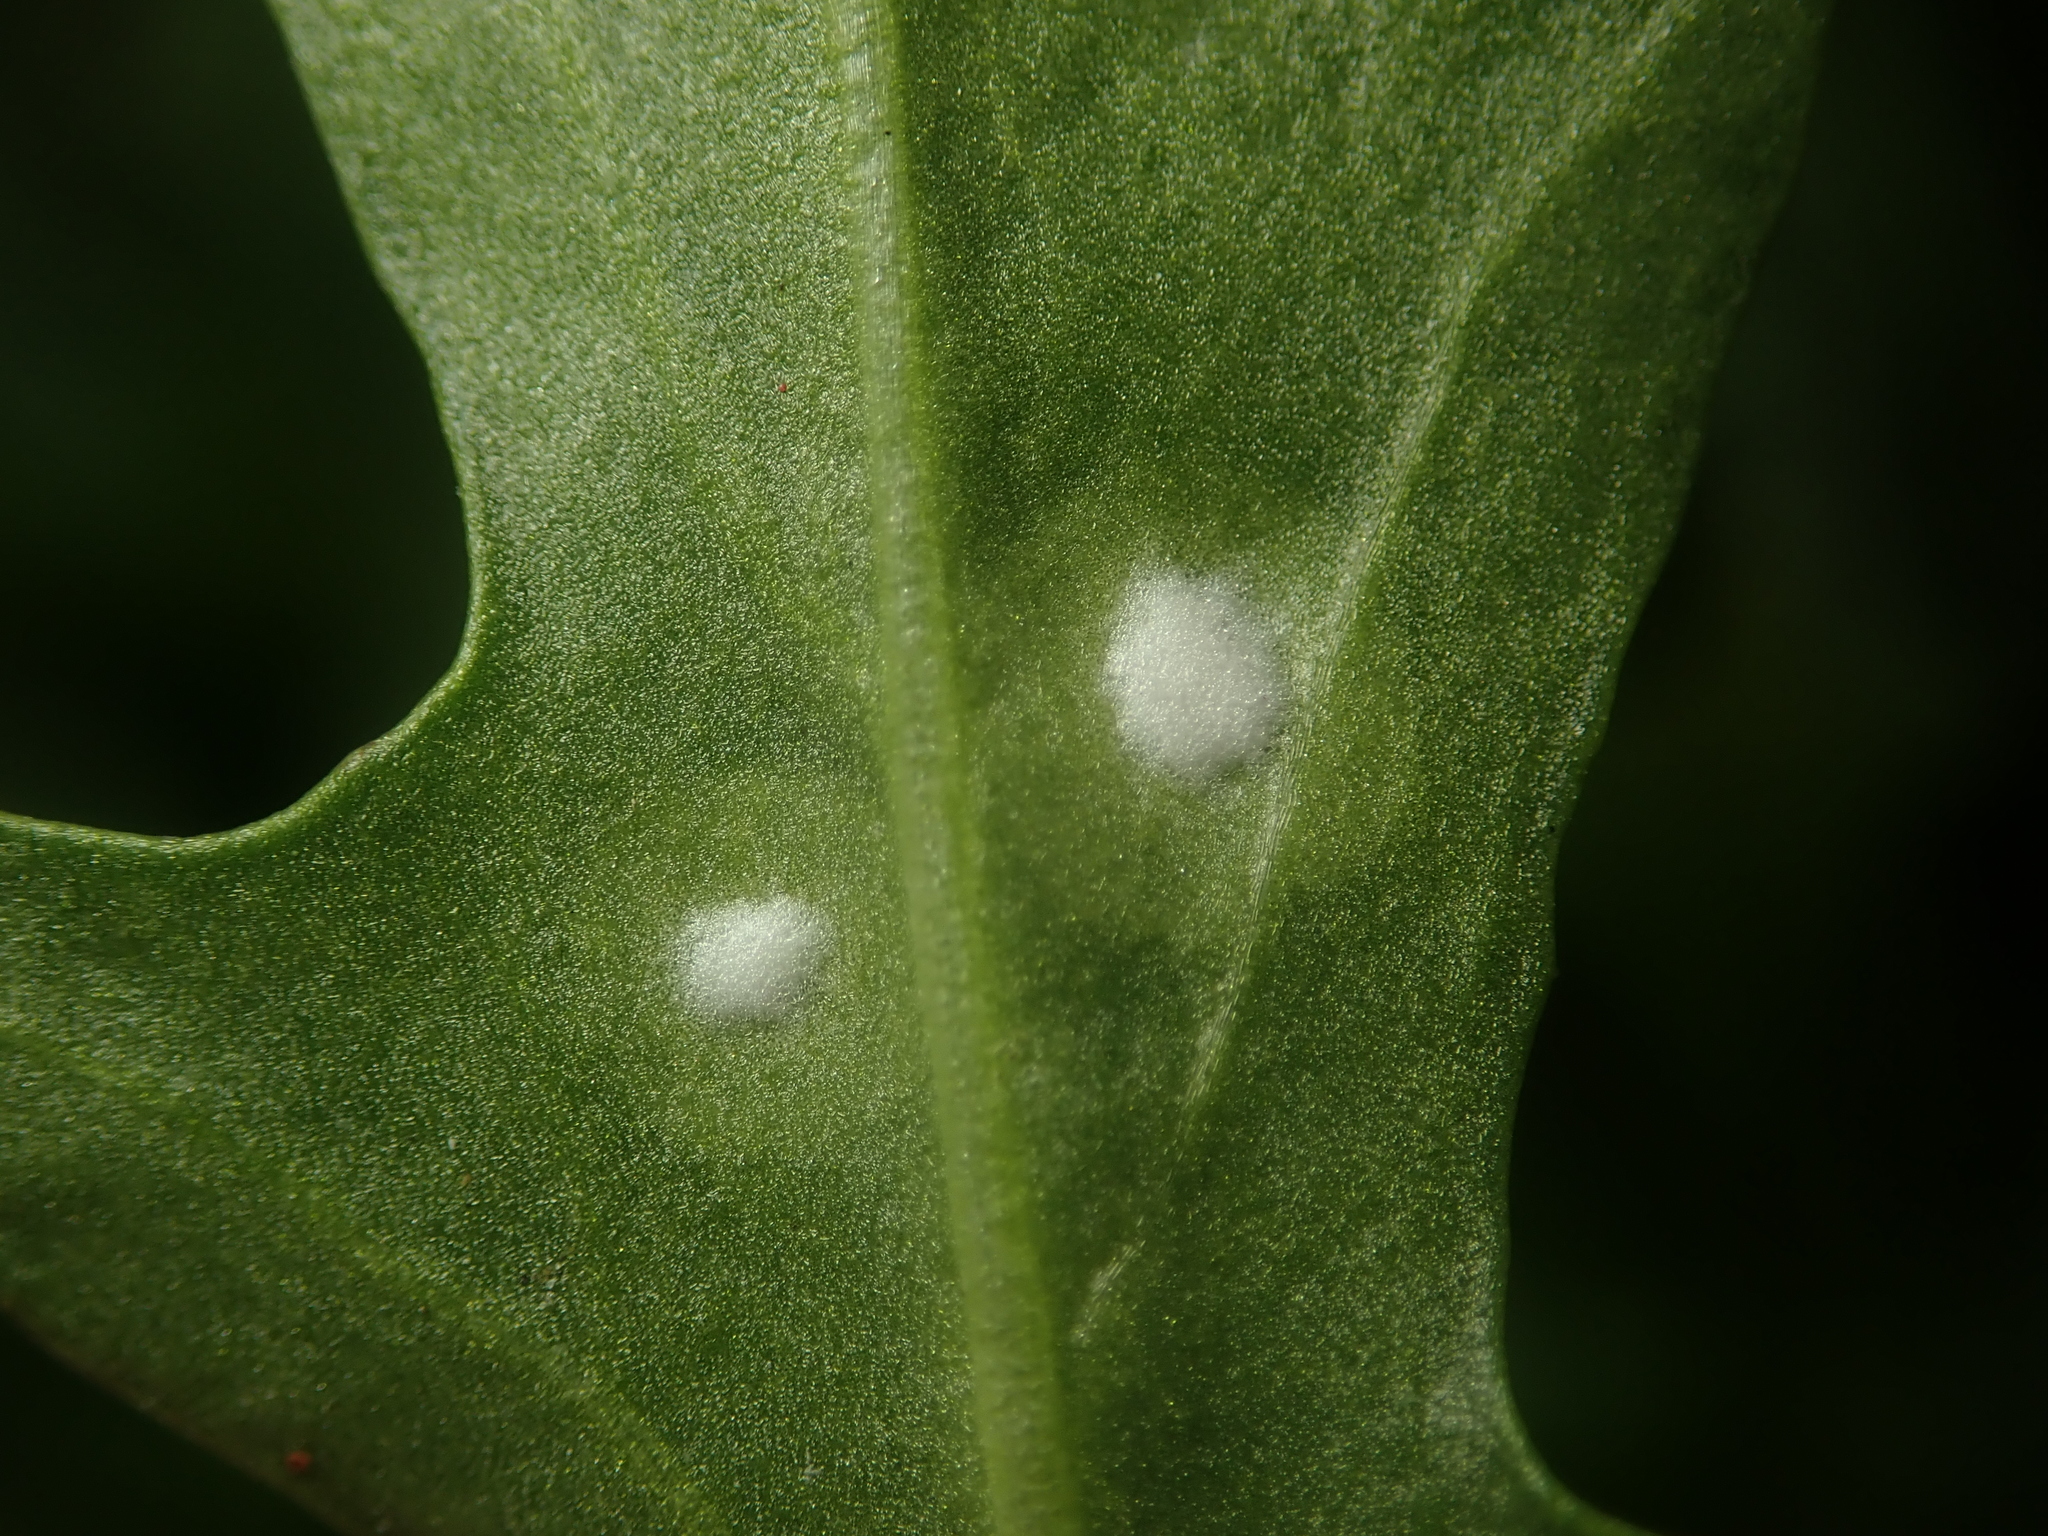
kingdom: Chromista
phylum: Oomycota
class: Peronosporea
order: Albuginales
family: Albuginaceae
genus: Albugo
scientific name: Albugo candida
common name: Crucifer white blister
